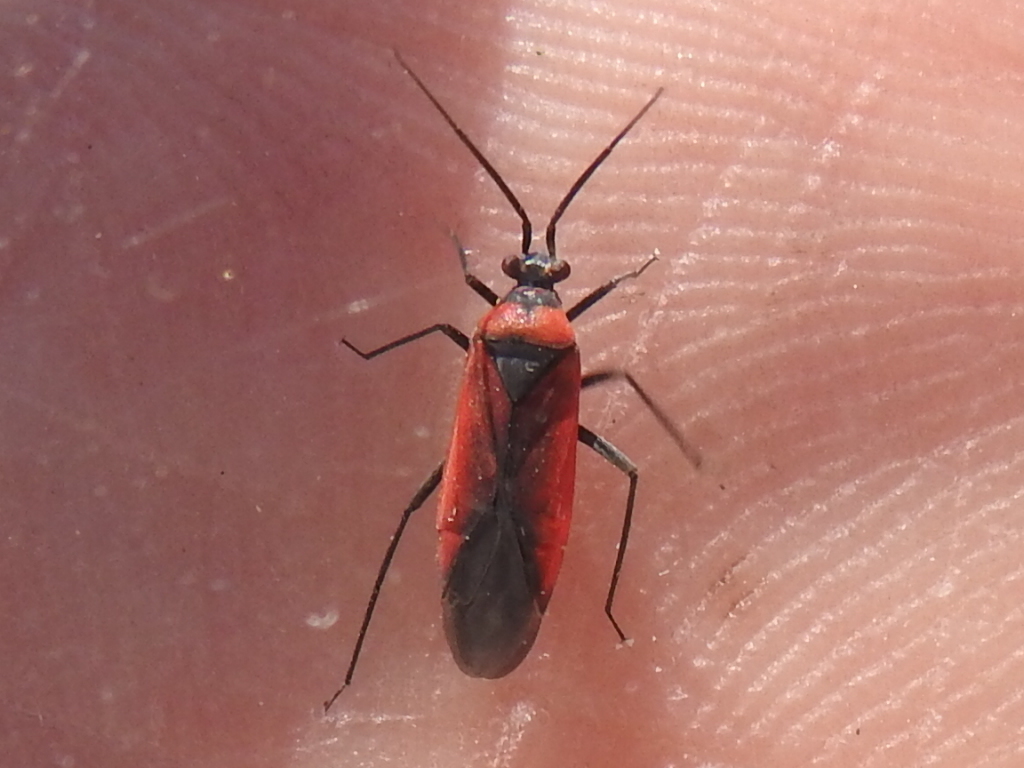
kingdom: Animalia
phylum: Arthropoda
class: Insecta
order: Hemiptera
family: Miridae
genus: Lopidea
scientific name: Lopidea major
